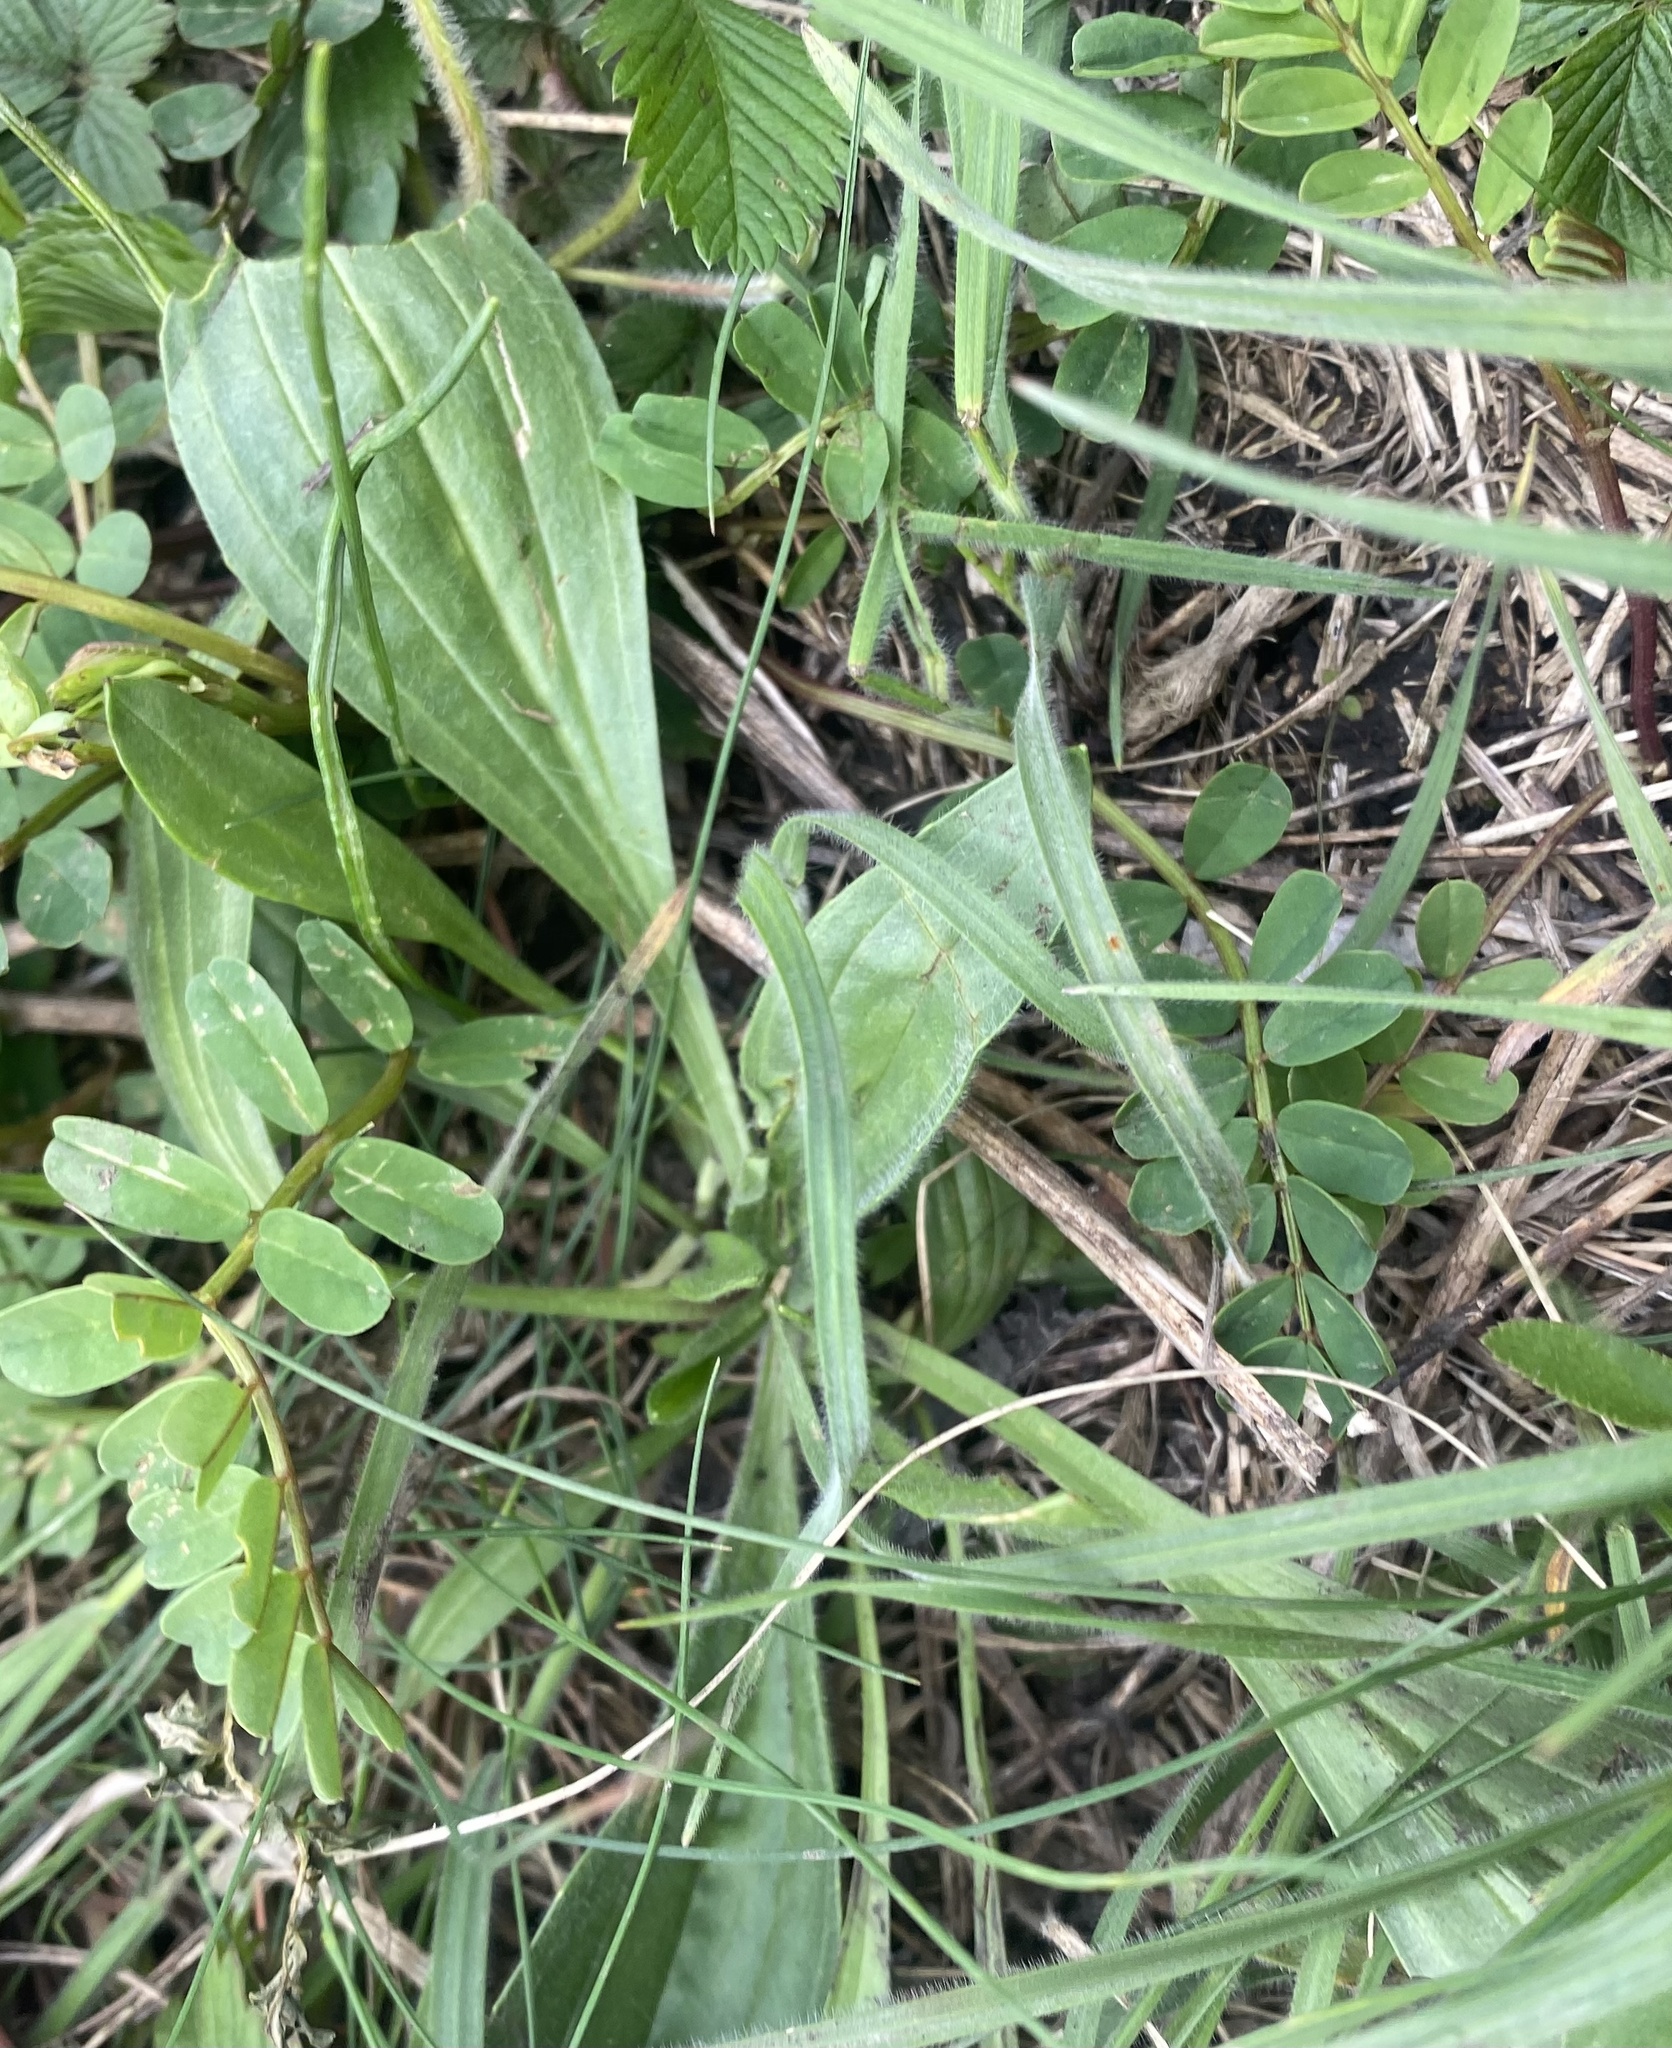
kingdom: Plantae
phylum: Tracheophyta
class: Magnoliopsida
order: Lamiales
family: Plantaginaceae
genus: Plantago
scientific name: Plantago lanceolata
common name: Ribwort plantain
